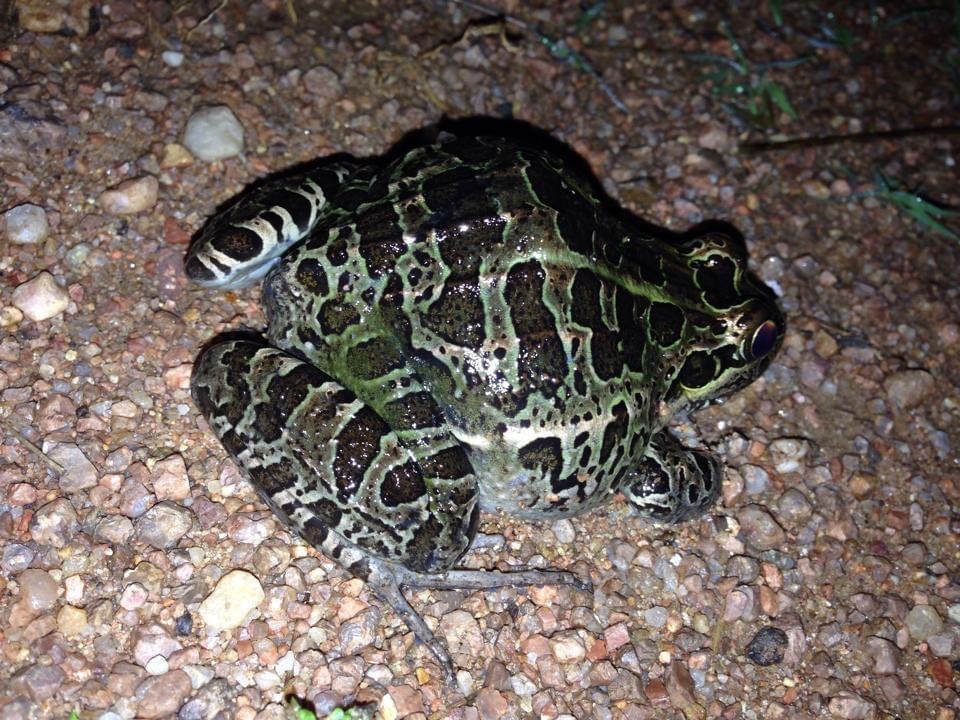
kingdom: Animalia
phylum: Chordata
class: Amphibia
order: Anura
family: Leptodactylidae
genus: Leptodactylus
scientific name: Leptodactylus luctator
